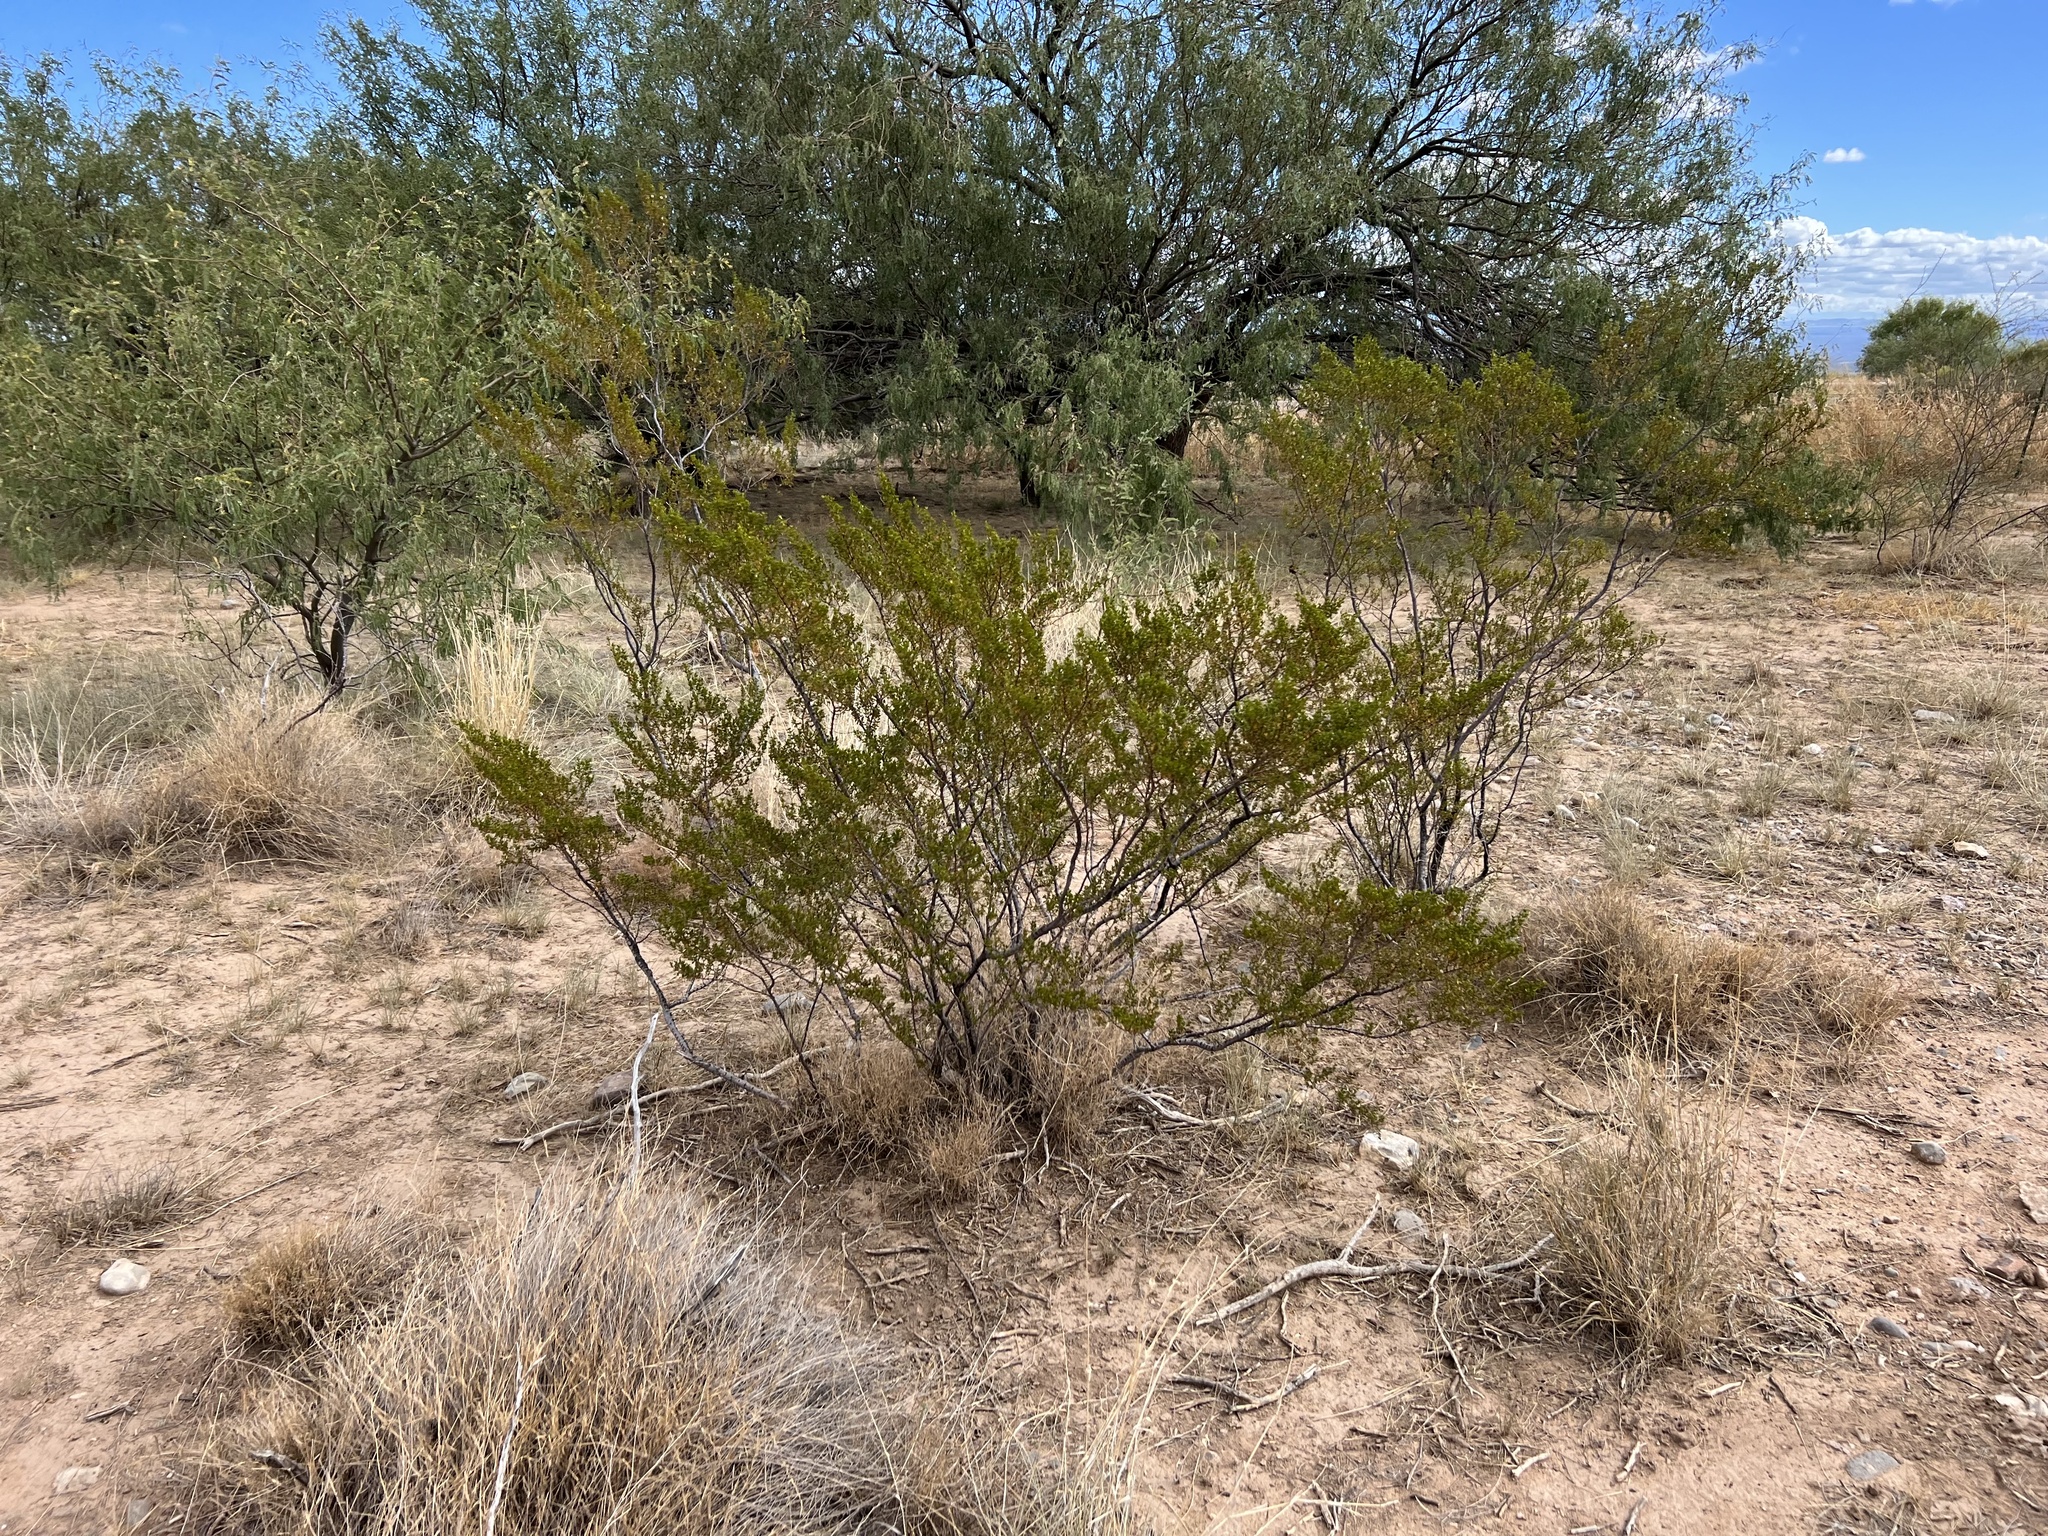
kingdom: Plantae
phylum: Tracheophyta
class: Magnoliopsida
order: Zygophyllales
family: Zygophyllaceae
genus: Larrea
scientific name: Larrea tridentata
